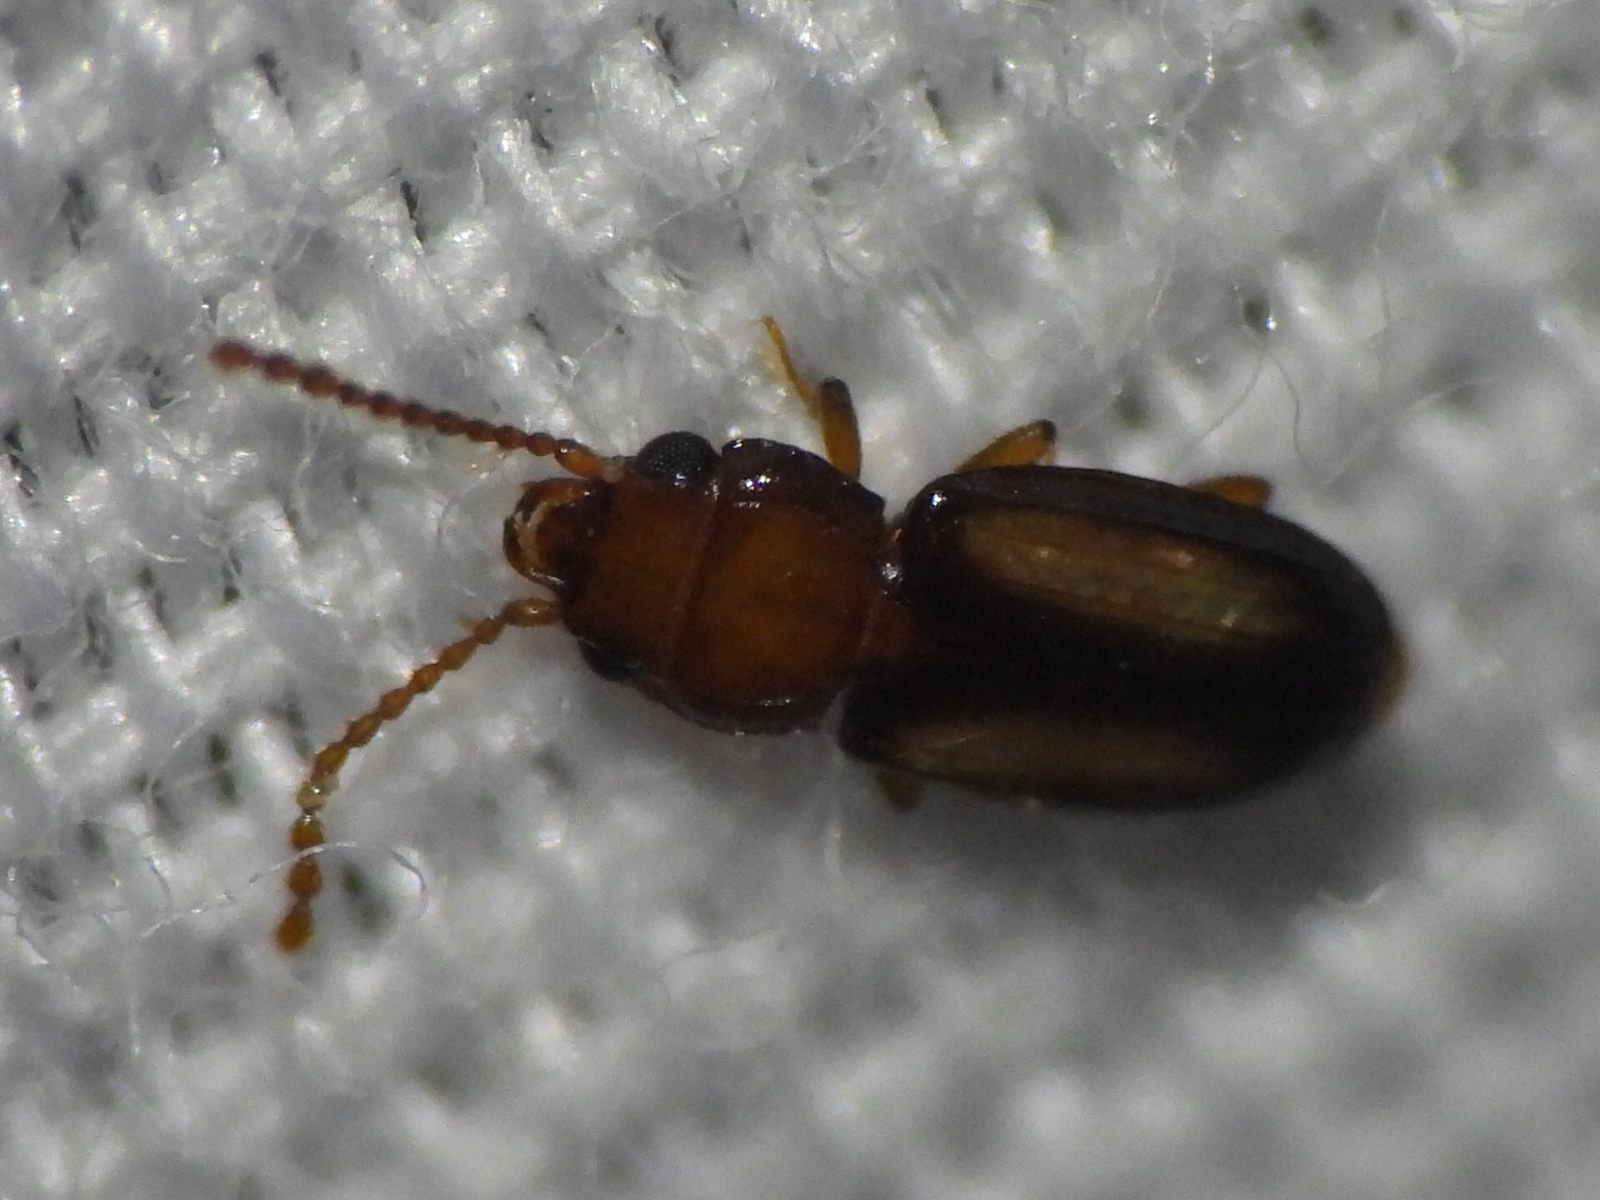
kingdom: Animalia
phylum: Arthropoda
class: Insecta
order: Coleoptera
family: Laemophloeidae
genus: Laemophloeus
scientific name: Laemophloeus terminalis
